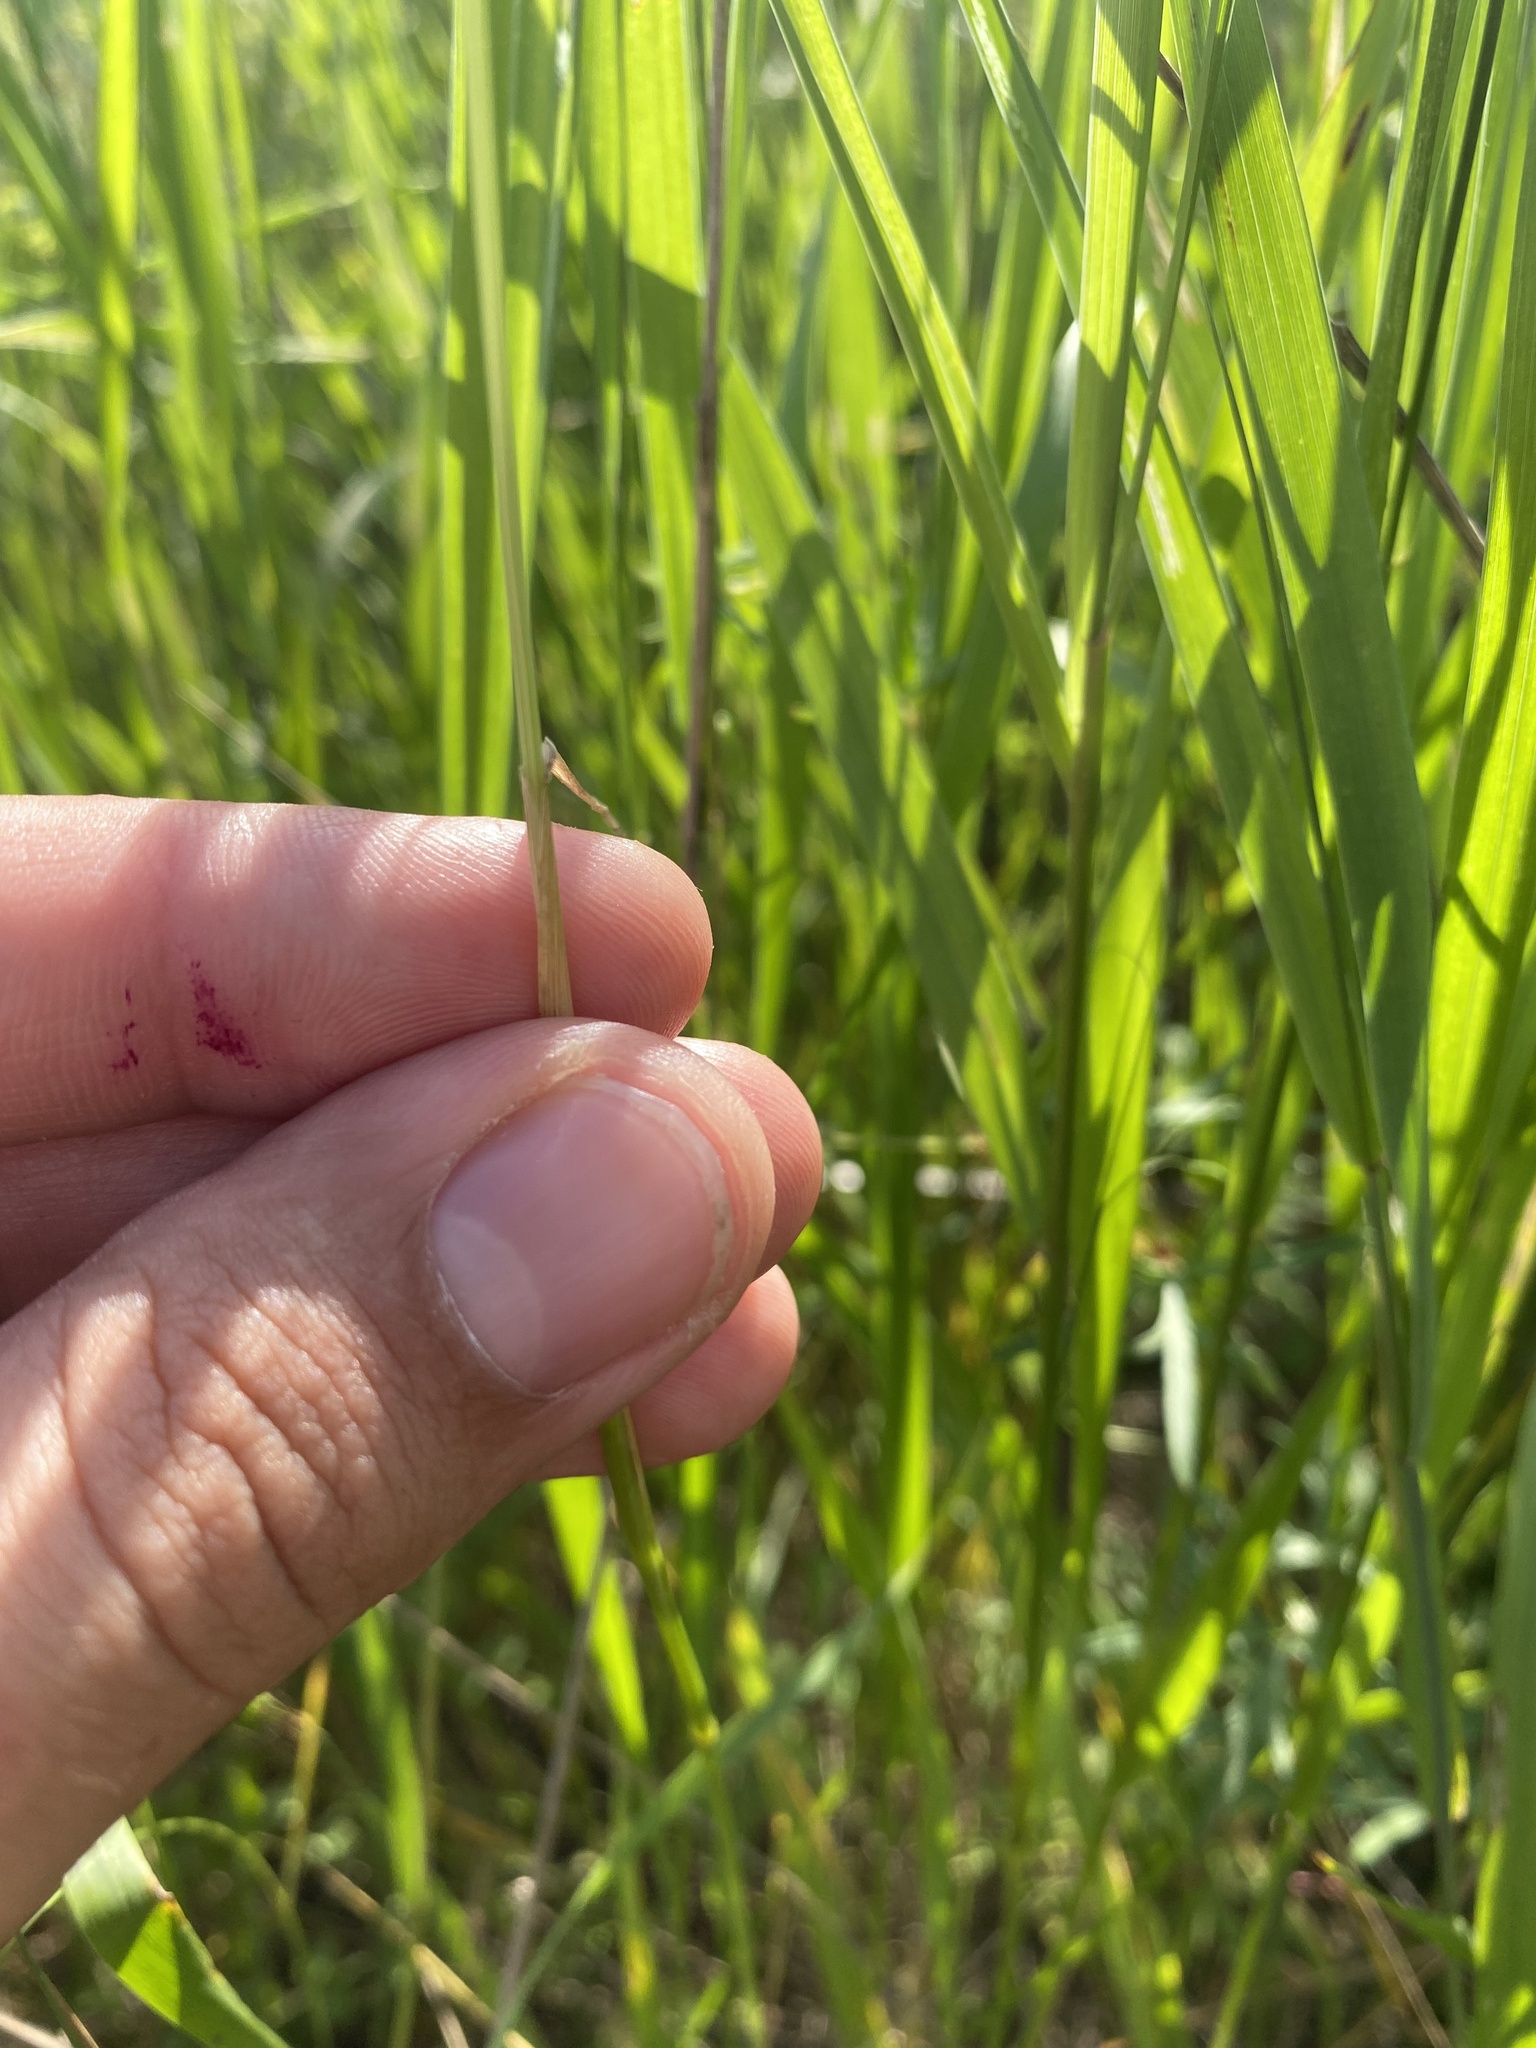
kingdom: Plantae
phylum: Tracheophyta
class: Liliopsida
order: Poales
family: Poaceae
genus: Dasypyrum
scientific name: Dasypyrum villosum
